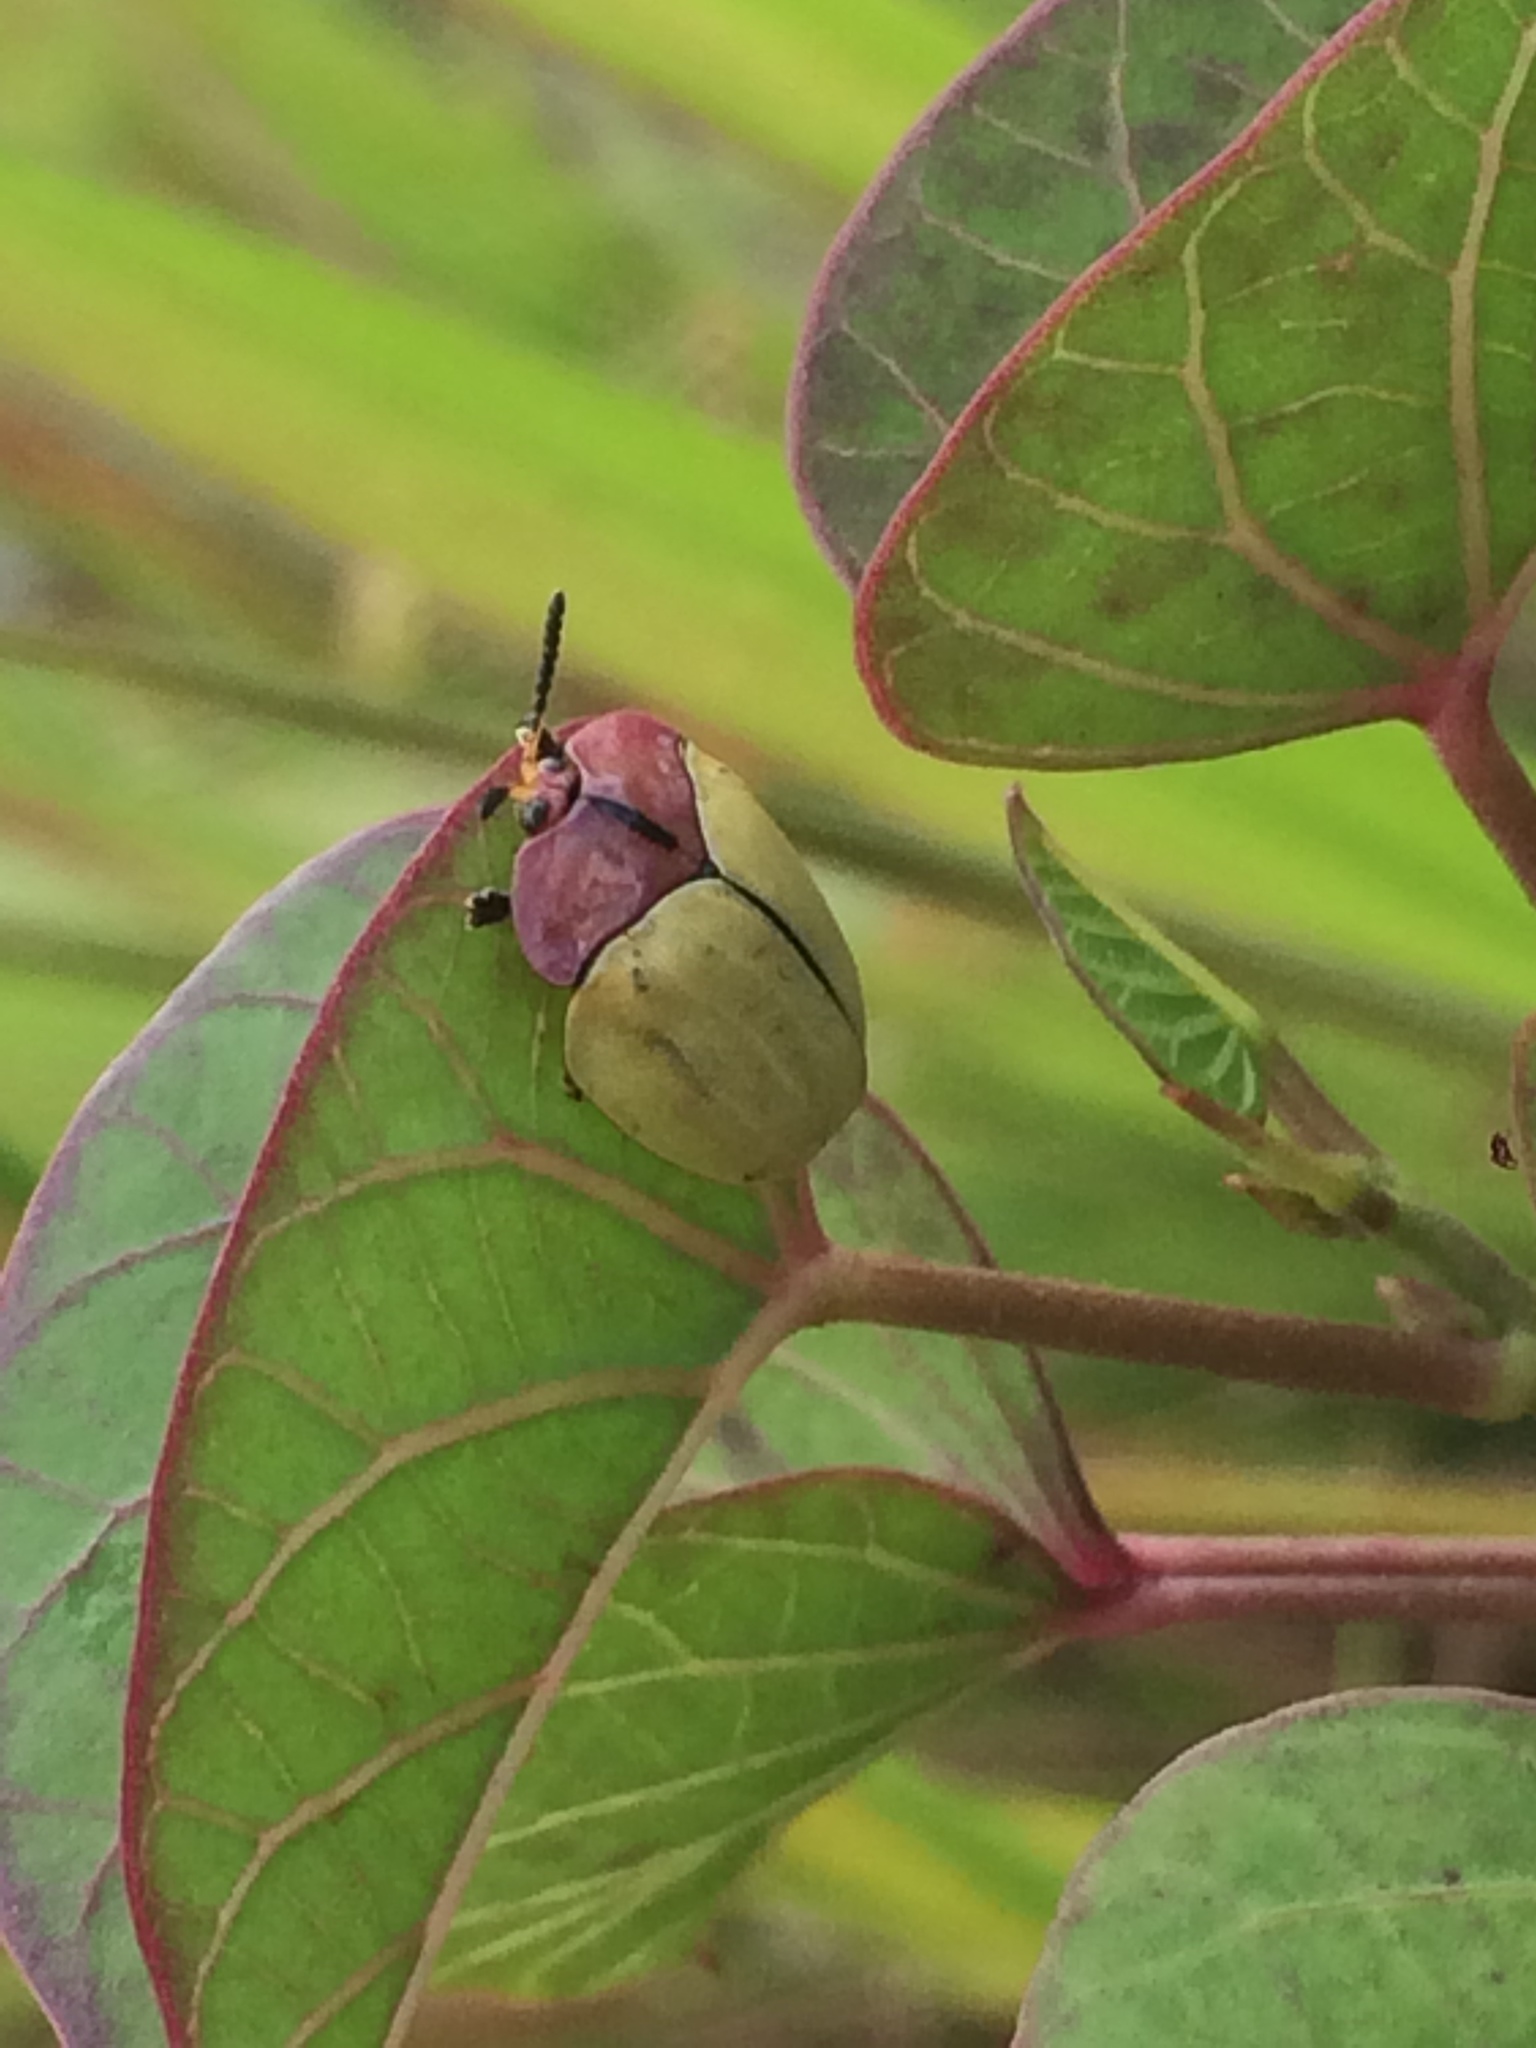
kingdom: Animalia
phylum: Arthropoda
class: Insecta
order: Coleoptera
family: Chrysomelidae
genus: Zatrephina
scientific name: Zatrephina lineata
